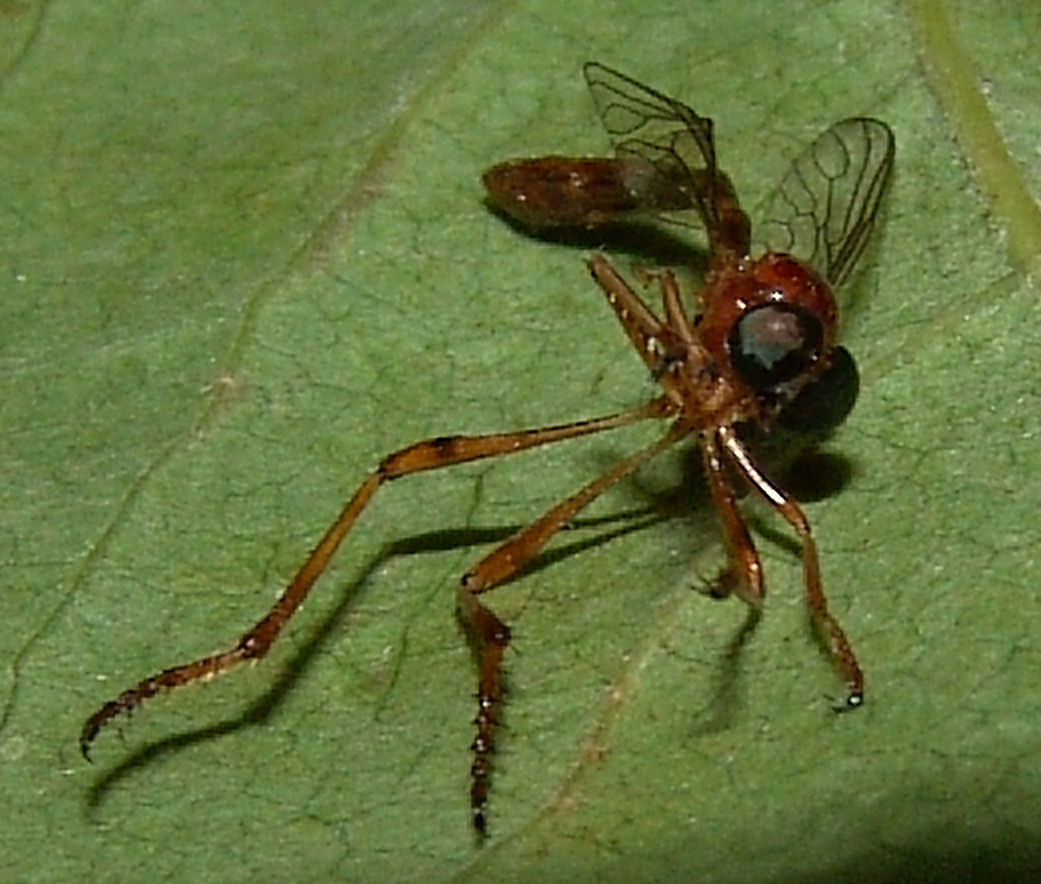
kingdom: Animalia
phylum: Arthropoda
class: Insecta
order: Diptera
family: Asilidae
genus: Tipulogaster
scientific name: Tipulogaster glabrata
